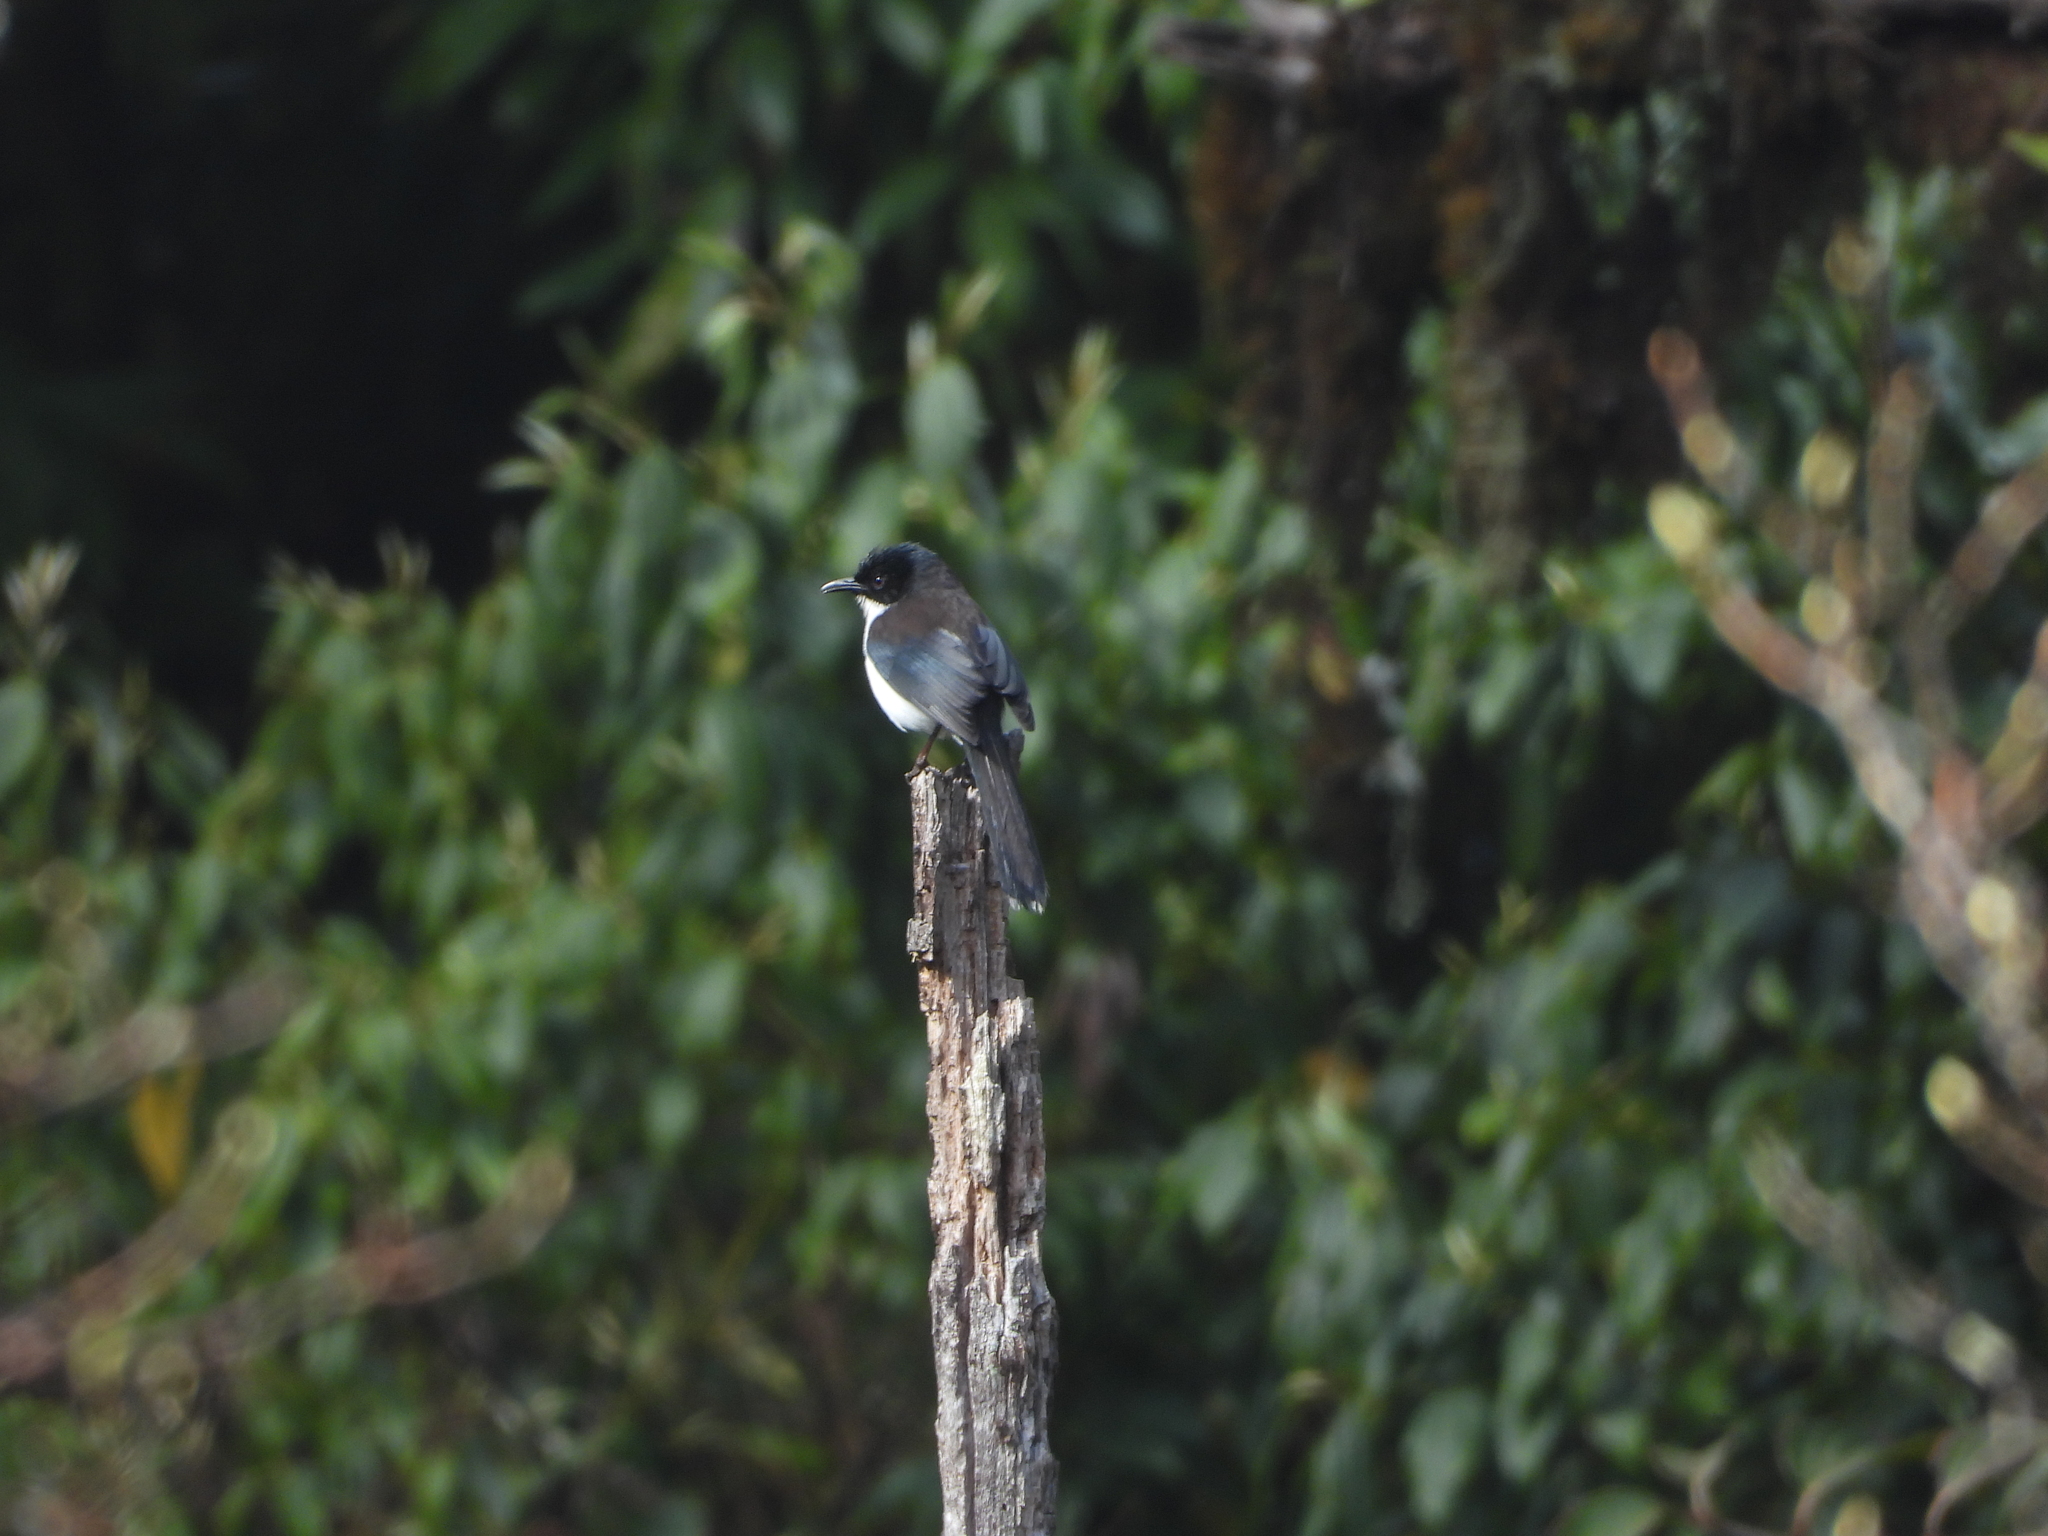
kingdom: Animalia
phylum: Chordata
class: Aves
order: Passeriformes
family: Leiothrichidae
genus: Heterophasia
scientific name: Heterophasia melanoleuca
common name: Dark-backed sibia
